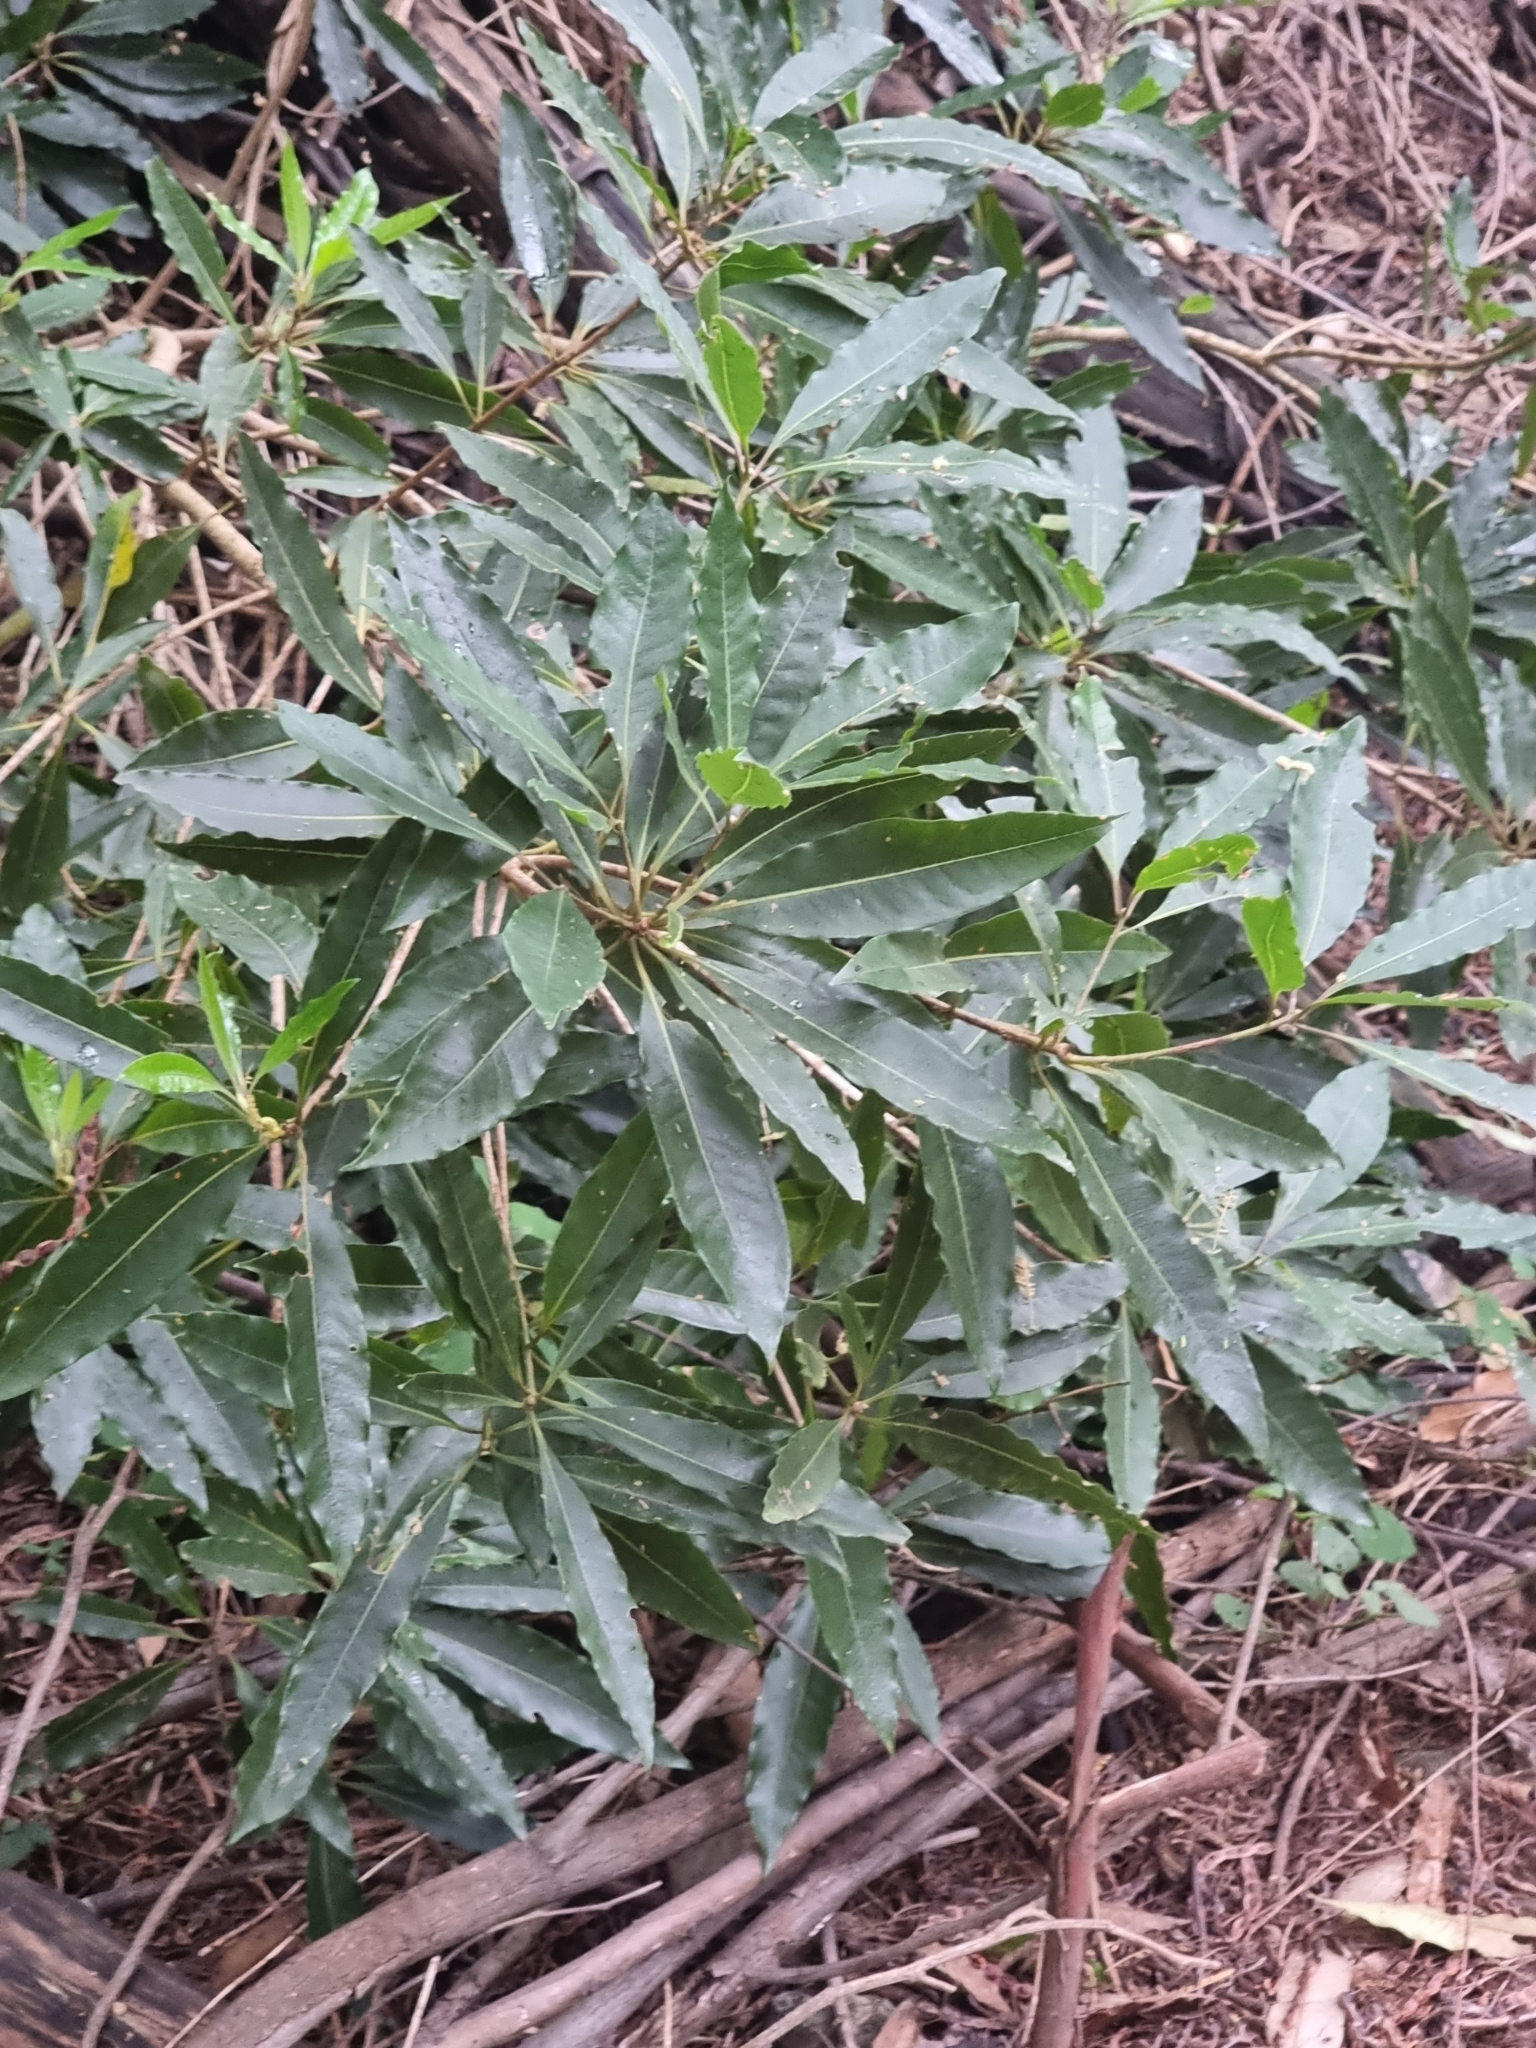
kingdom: Plantae
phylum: Tracheophyta
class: Magnoliopsida
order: Apiales
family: Pittosporaceae
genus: Pittosporum
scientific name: Pittosporum undulatum
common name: Australian cheesewood
